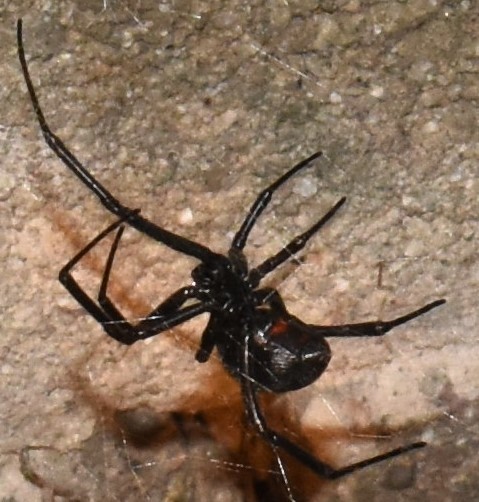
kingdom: Animalia
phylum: Arthropoda
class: Arachnida
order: Araneae
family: Theridiidae
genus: Latrodectus
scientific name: Latrodectus hesperus
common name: Western black widow
